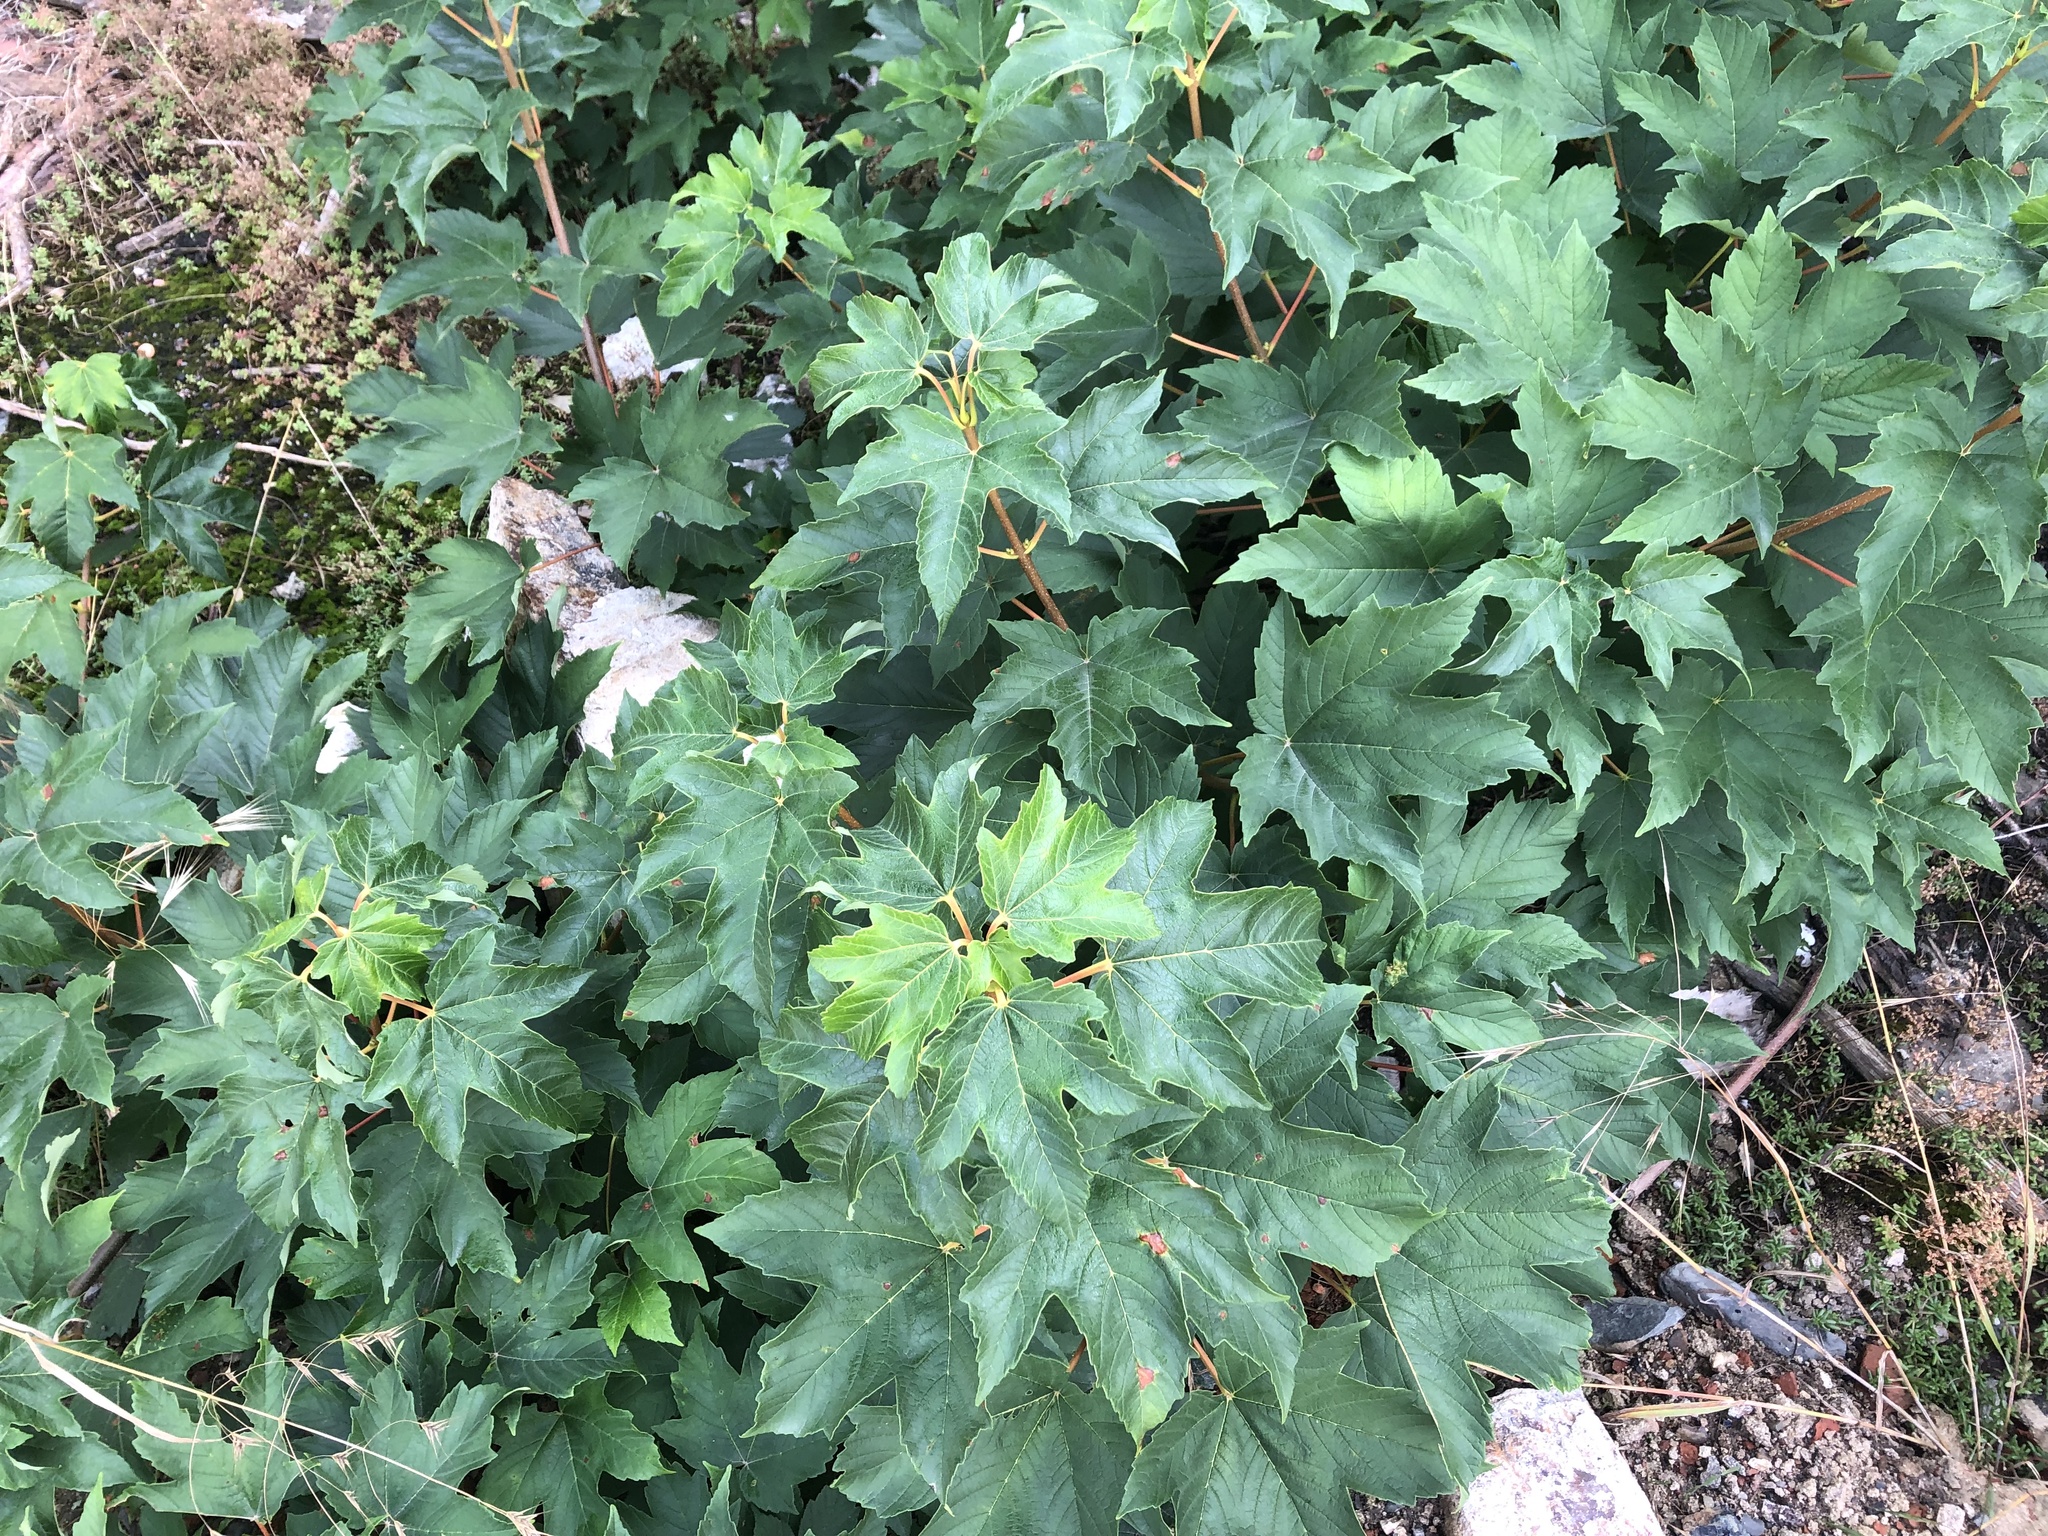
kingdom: Plantae
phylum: Tracheophyta
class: Magnoliopsida
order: Sapindales
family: Sapindaceae
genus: Acer
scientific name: Acer campestre
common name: Field maple
